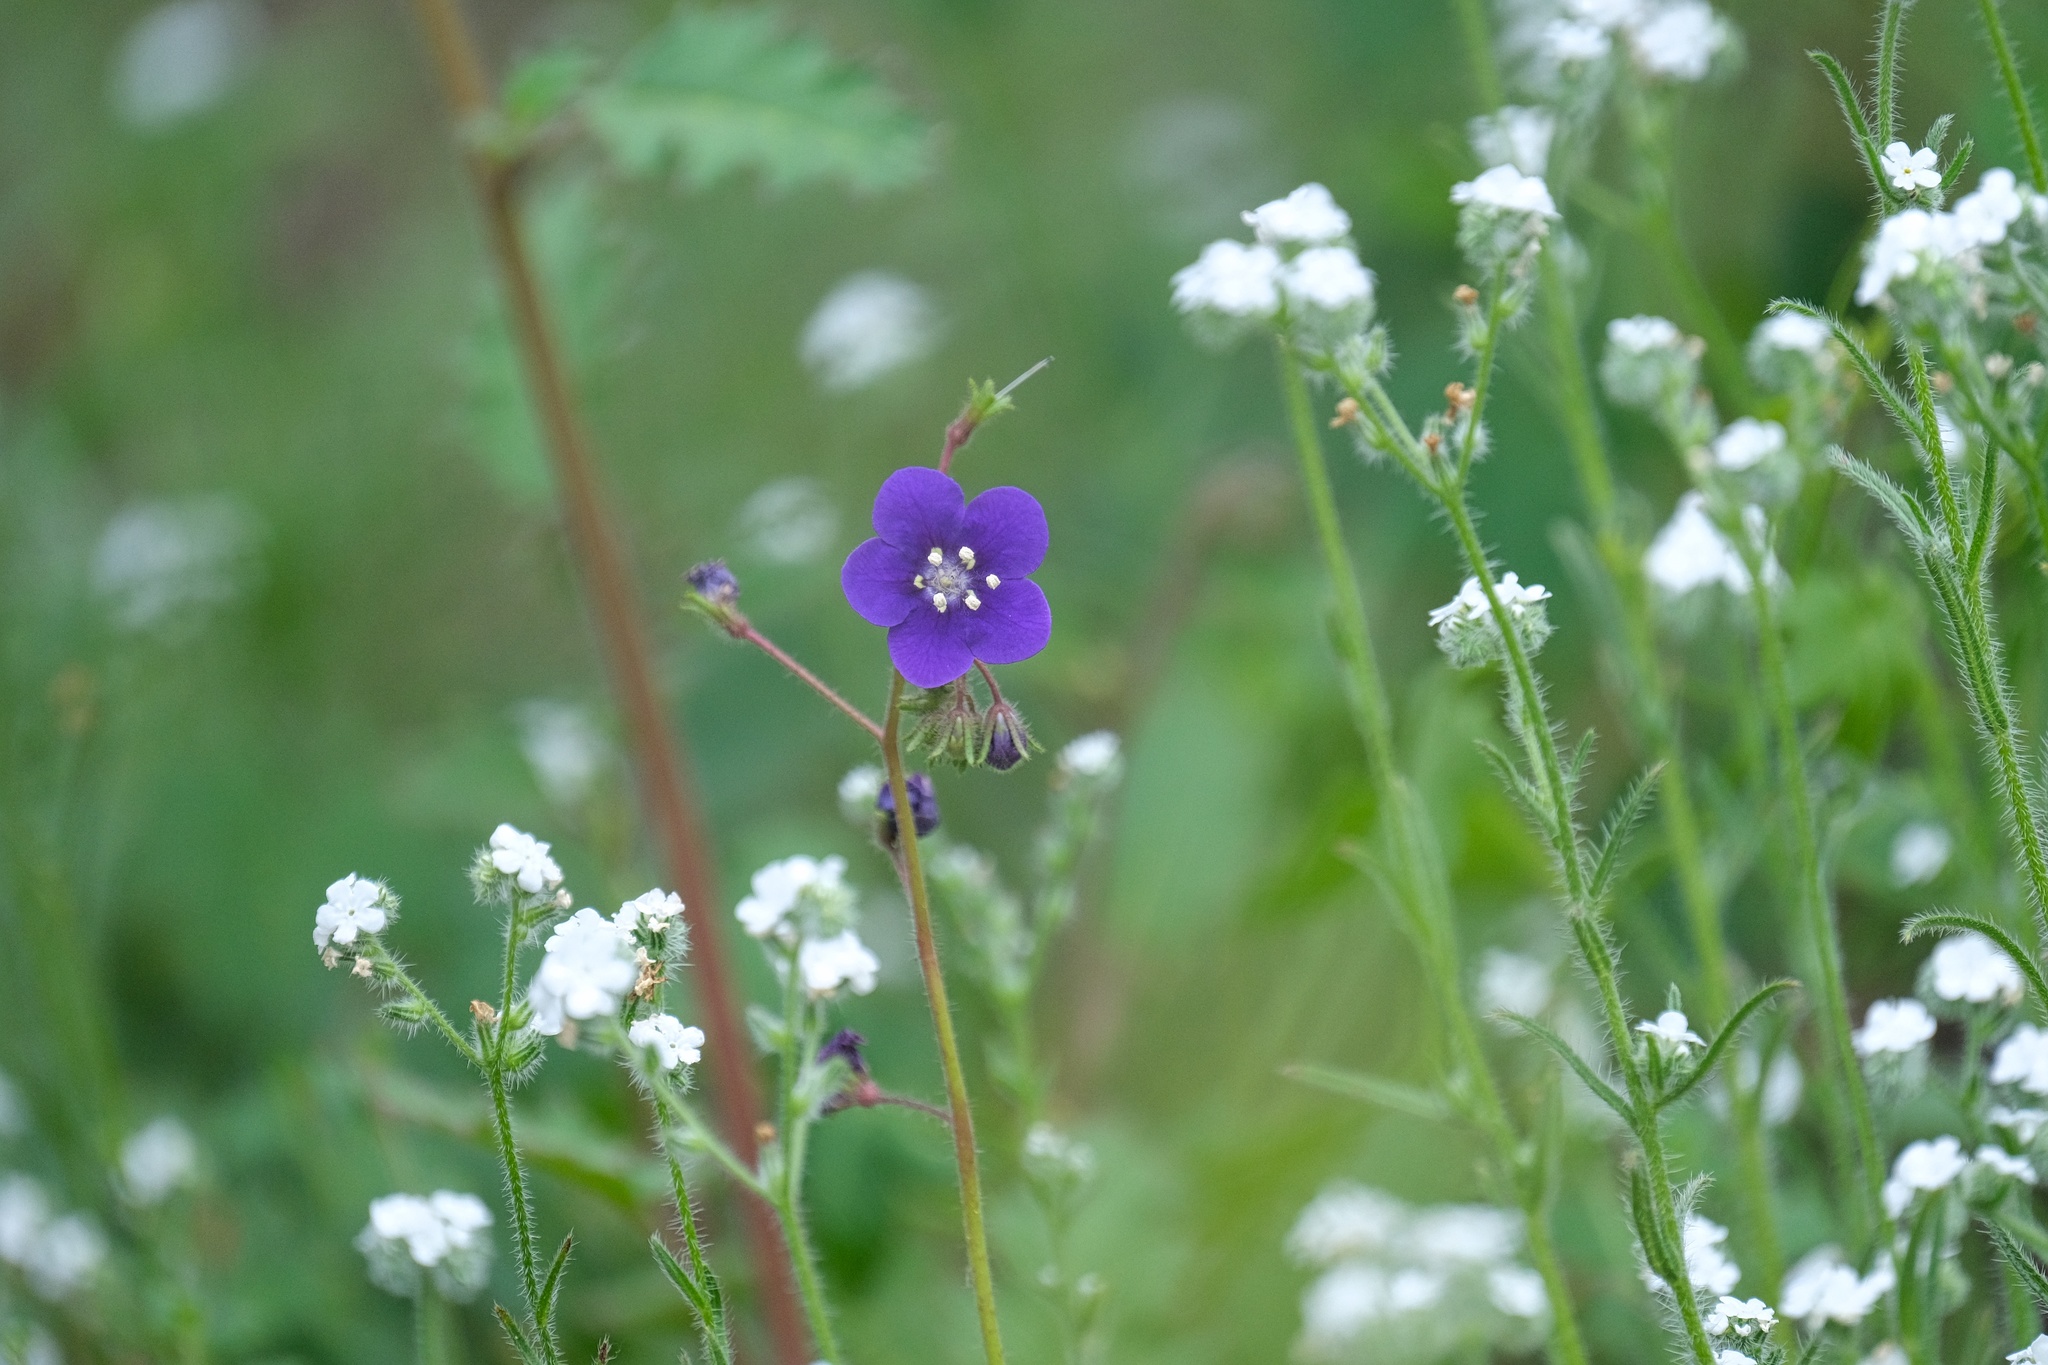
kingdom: Plantae
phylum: Tracheophyta
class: Magnoliopsida
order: Boraginales
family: Hydrophyllaceae
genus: Phacelia
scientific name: Phacelia parryi
